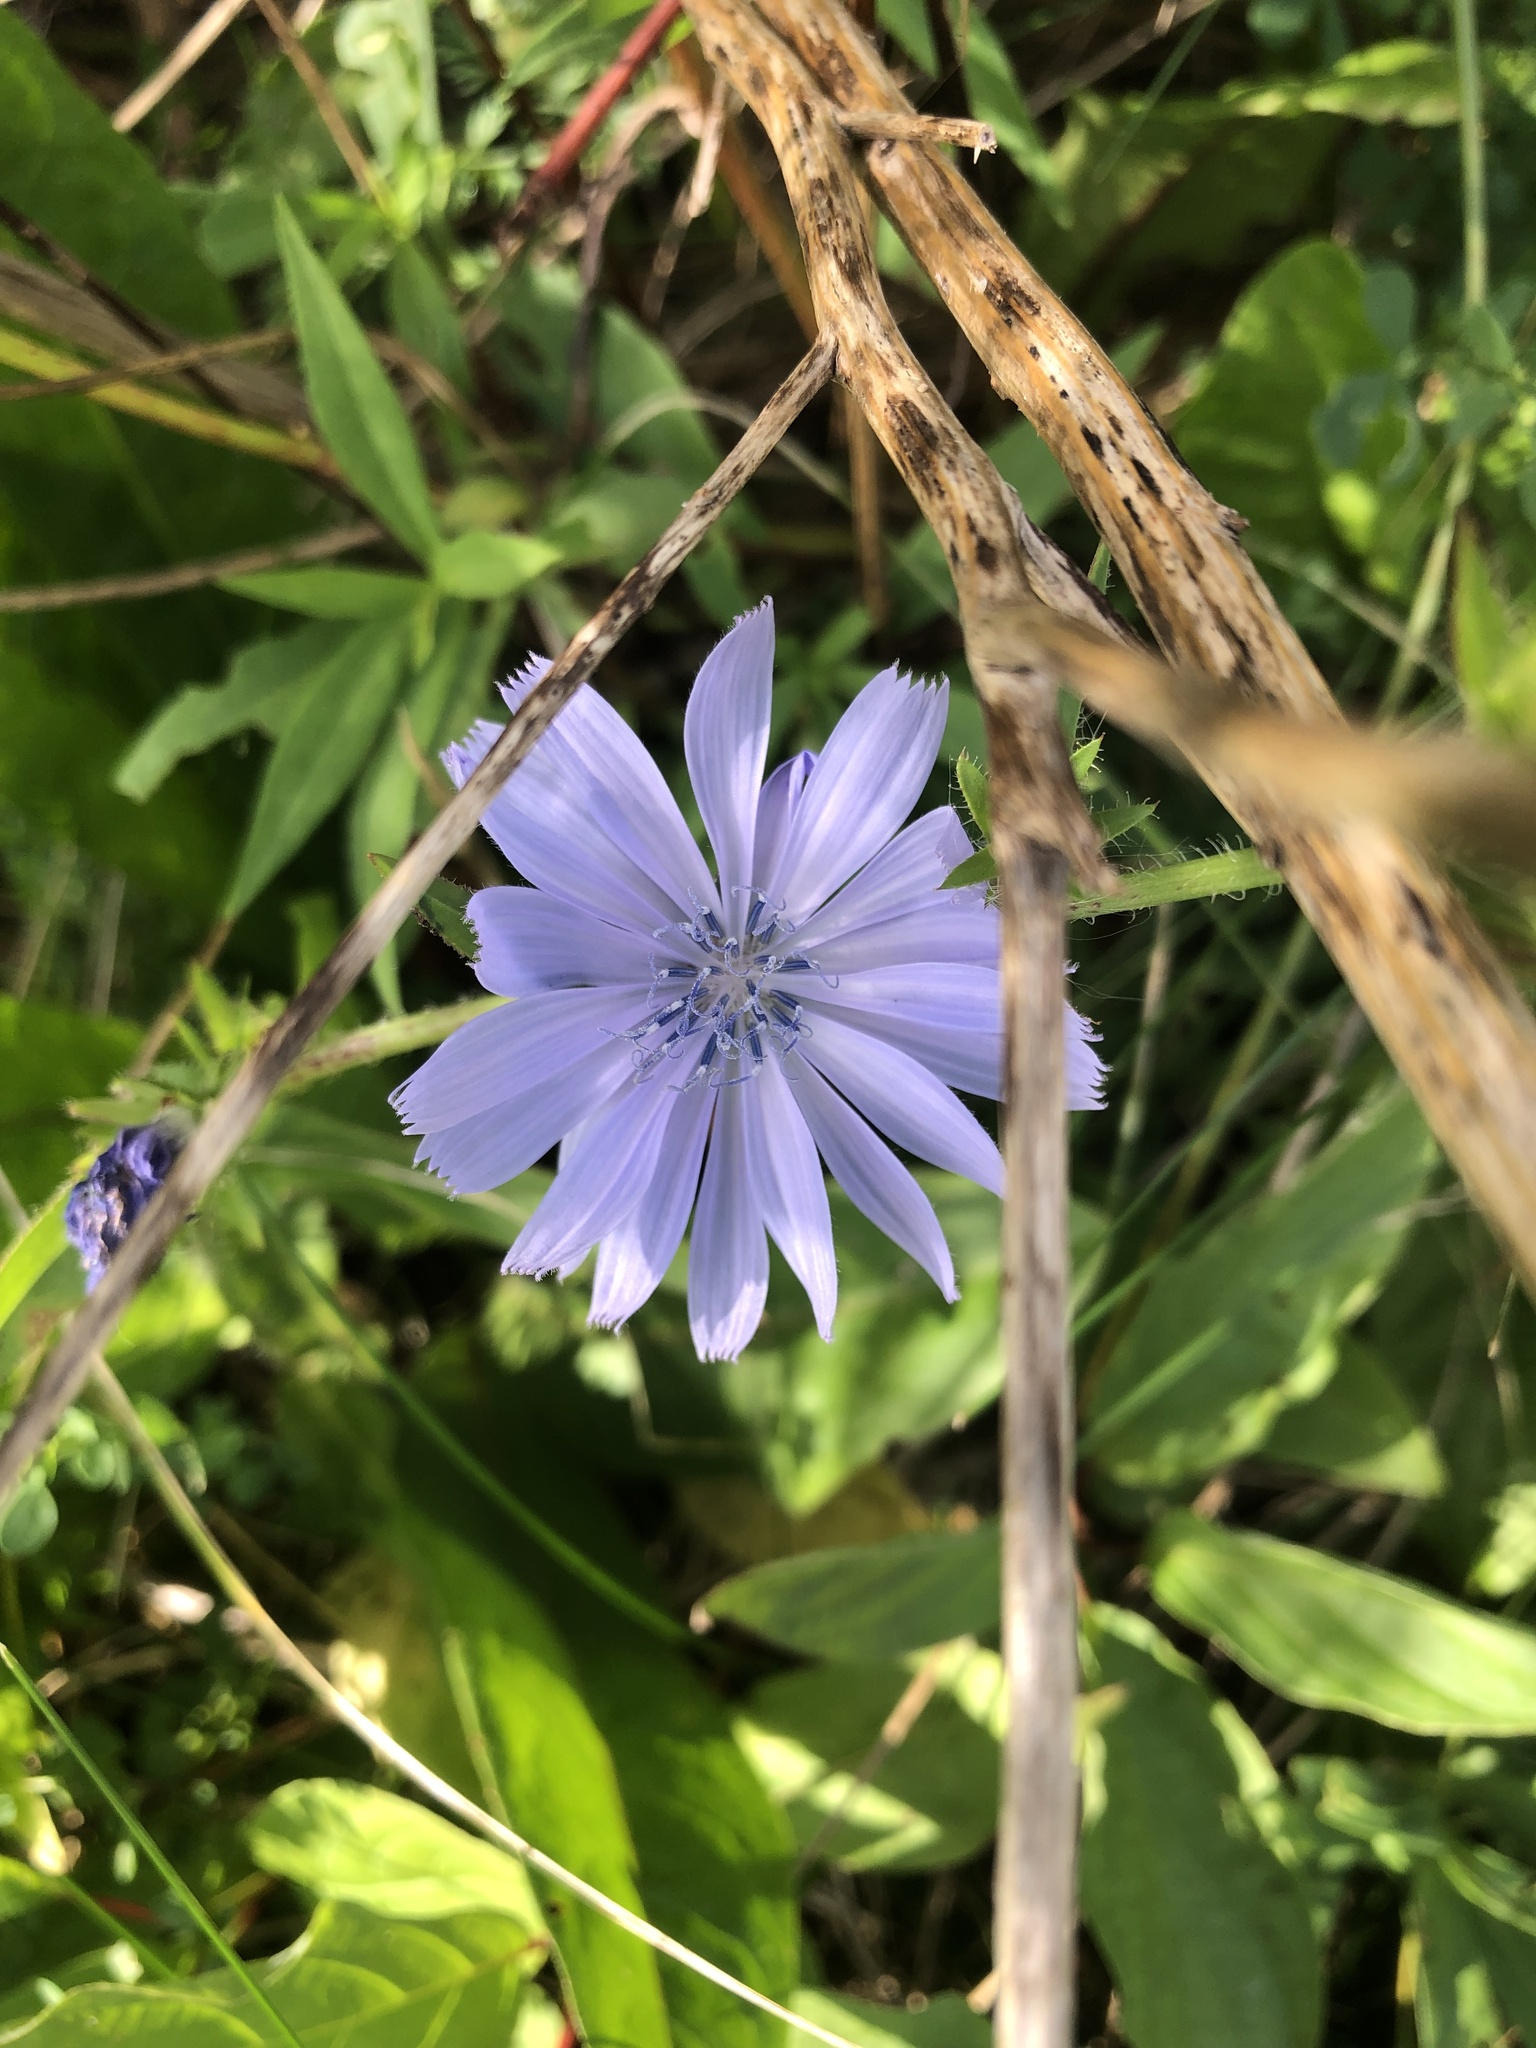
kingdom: Plantae
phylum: Tracheophyta
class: Magnoliopsida
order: Asterales
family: Asteraceae
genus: Cichorium
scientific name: Cichorium intybus
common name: Chicory
